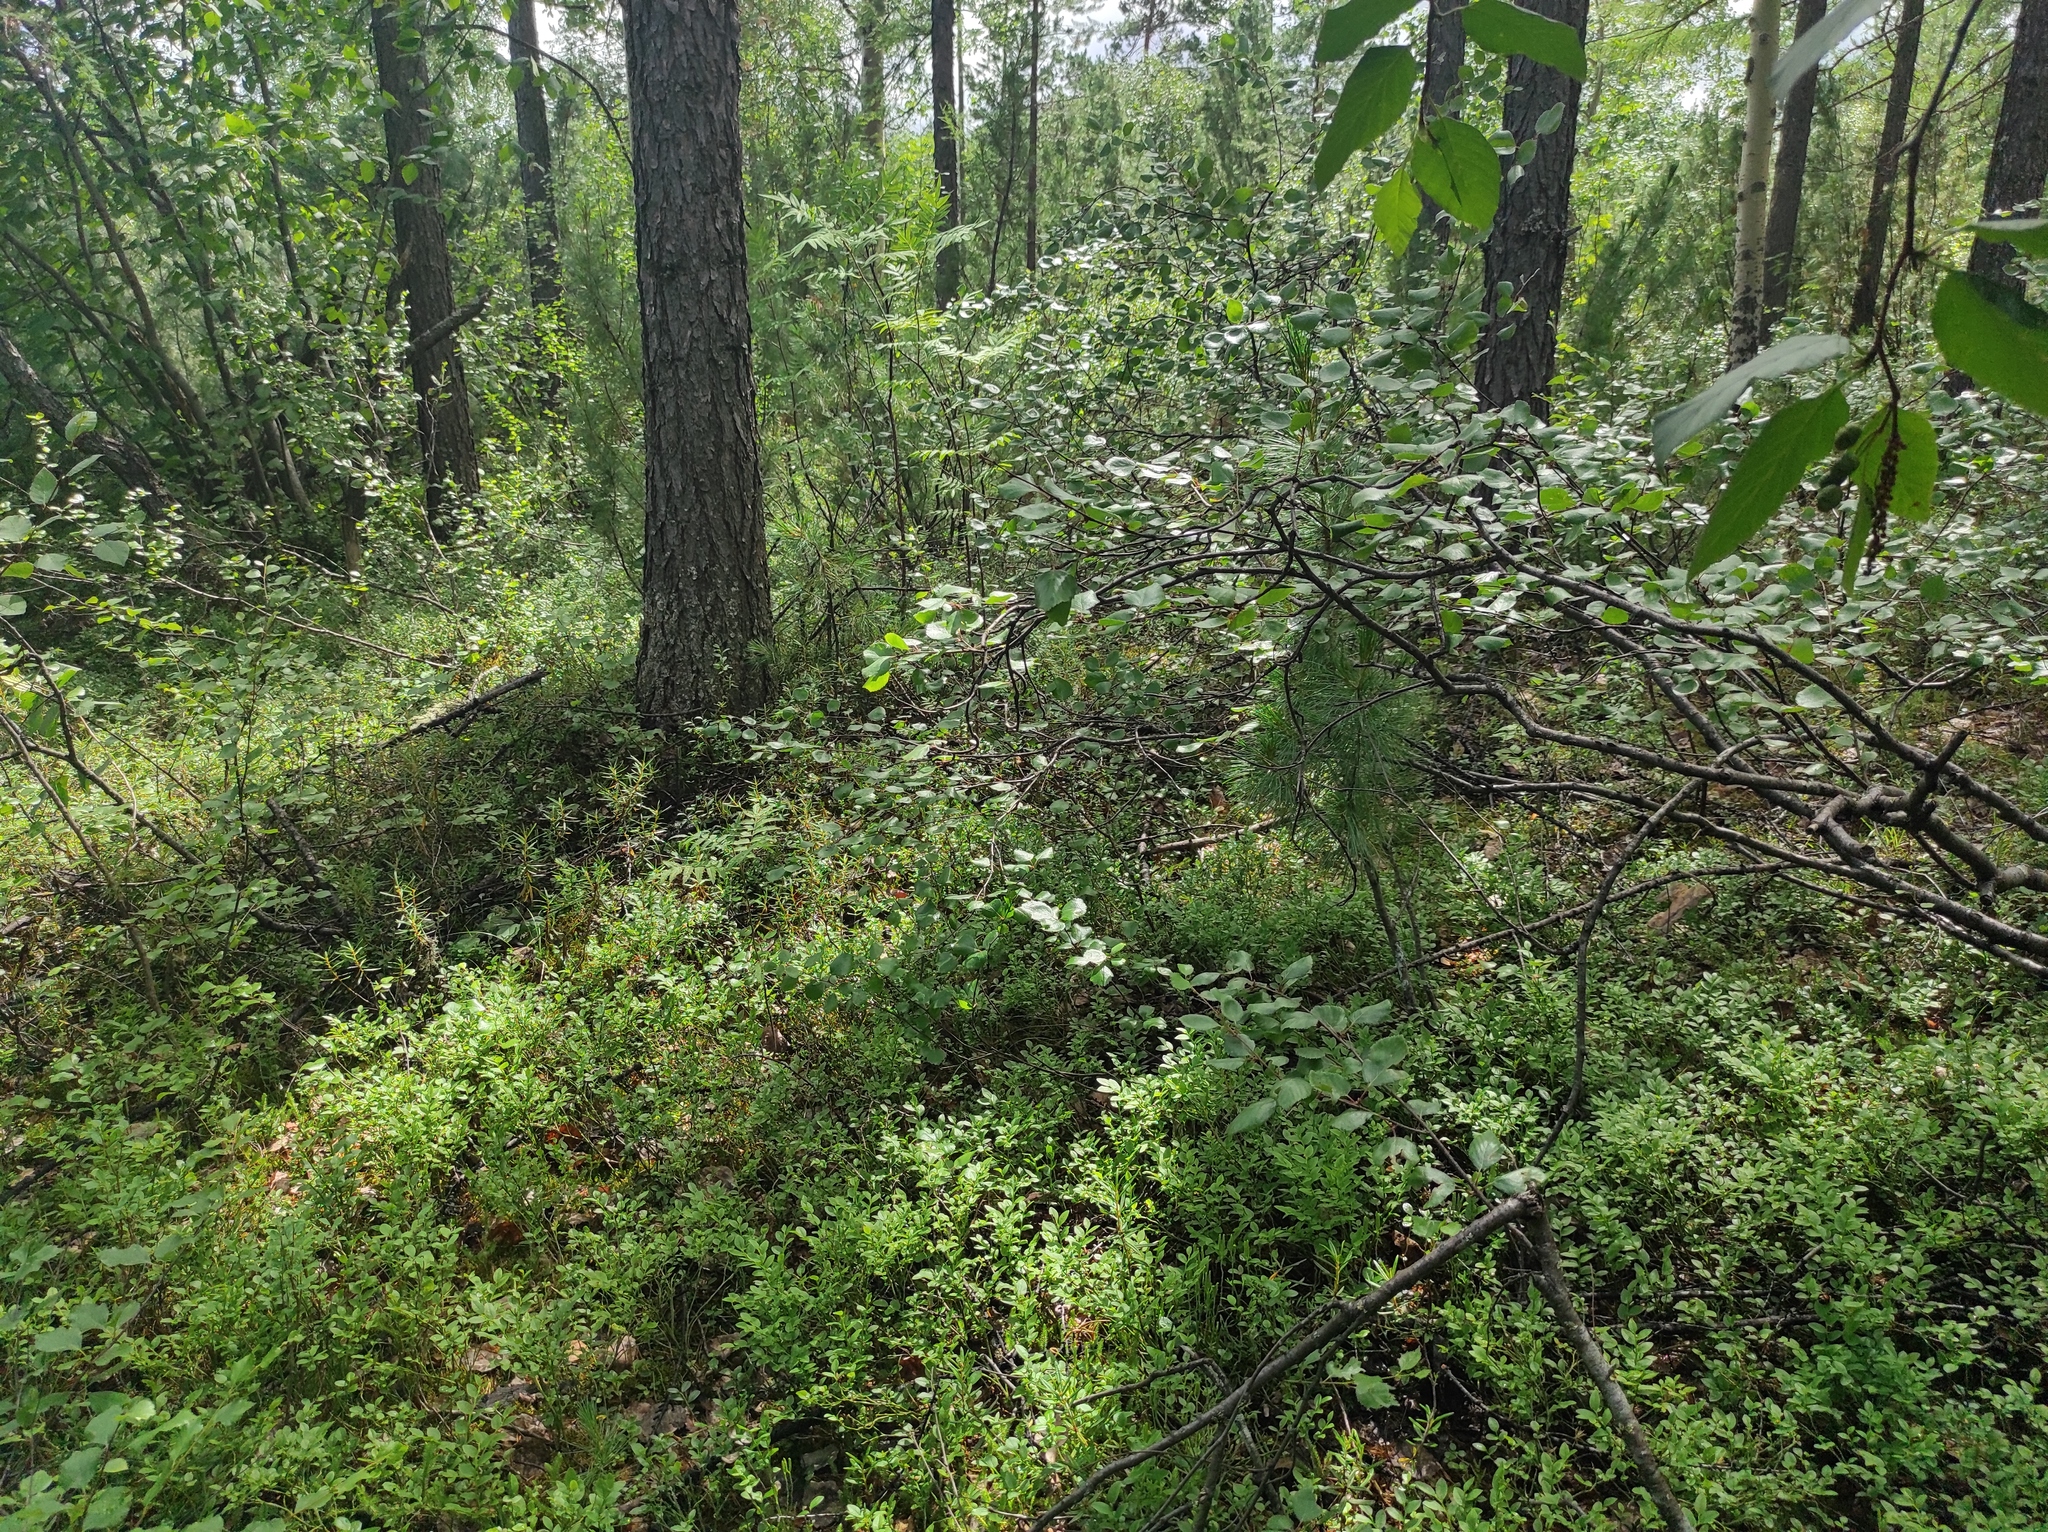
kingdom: Plantae
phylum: Tracheophyta
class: Magnoliopsida
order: Fagales
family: Betulaceae
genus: Alnus
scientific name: Alnus alnobetula
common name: Green alder
